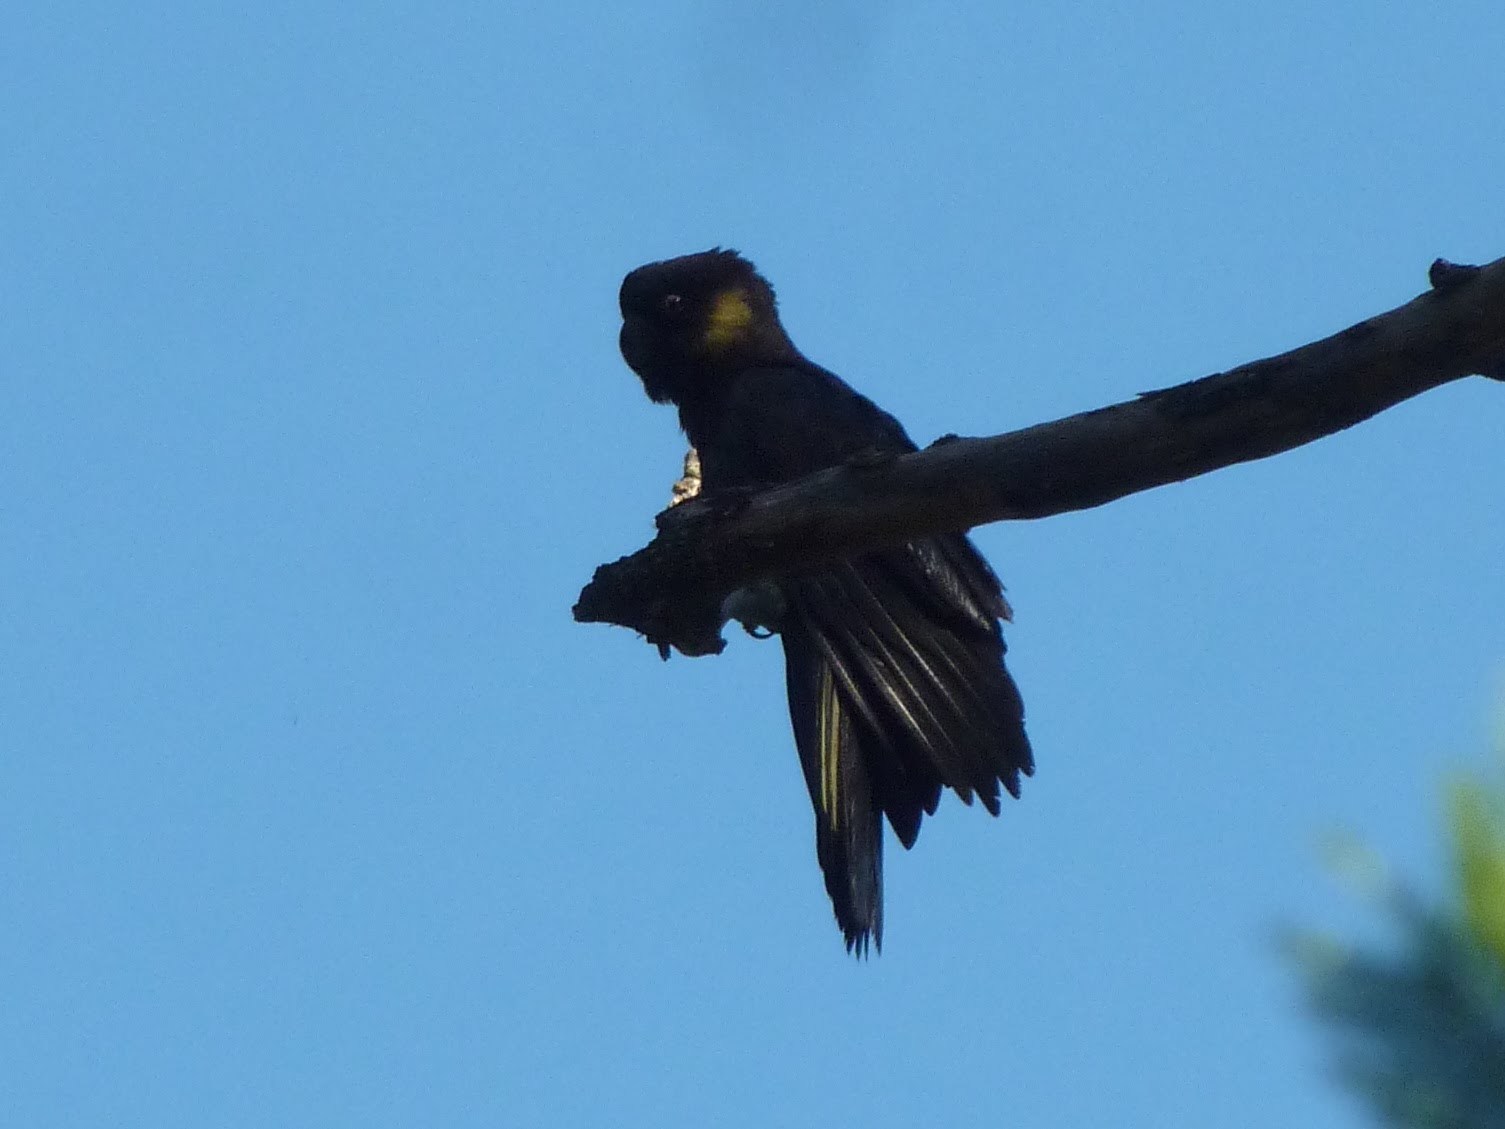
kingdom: Animalia
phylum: Chordata
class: Aves
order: Psittaciformes
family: Cacatuidae
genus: Zanda
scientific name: Zanda funerea
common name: Yellow-tailed black-cockatoo
